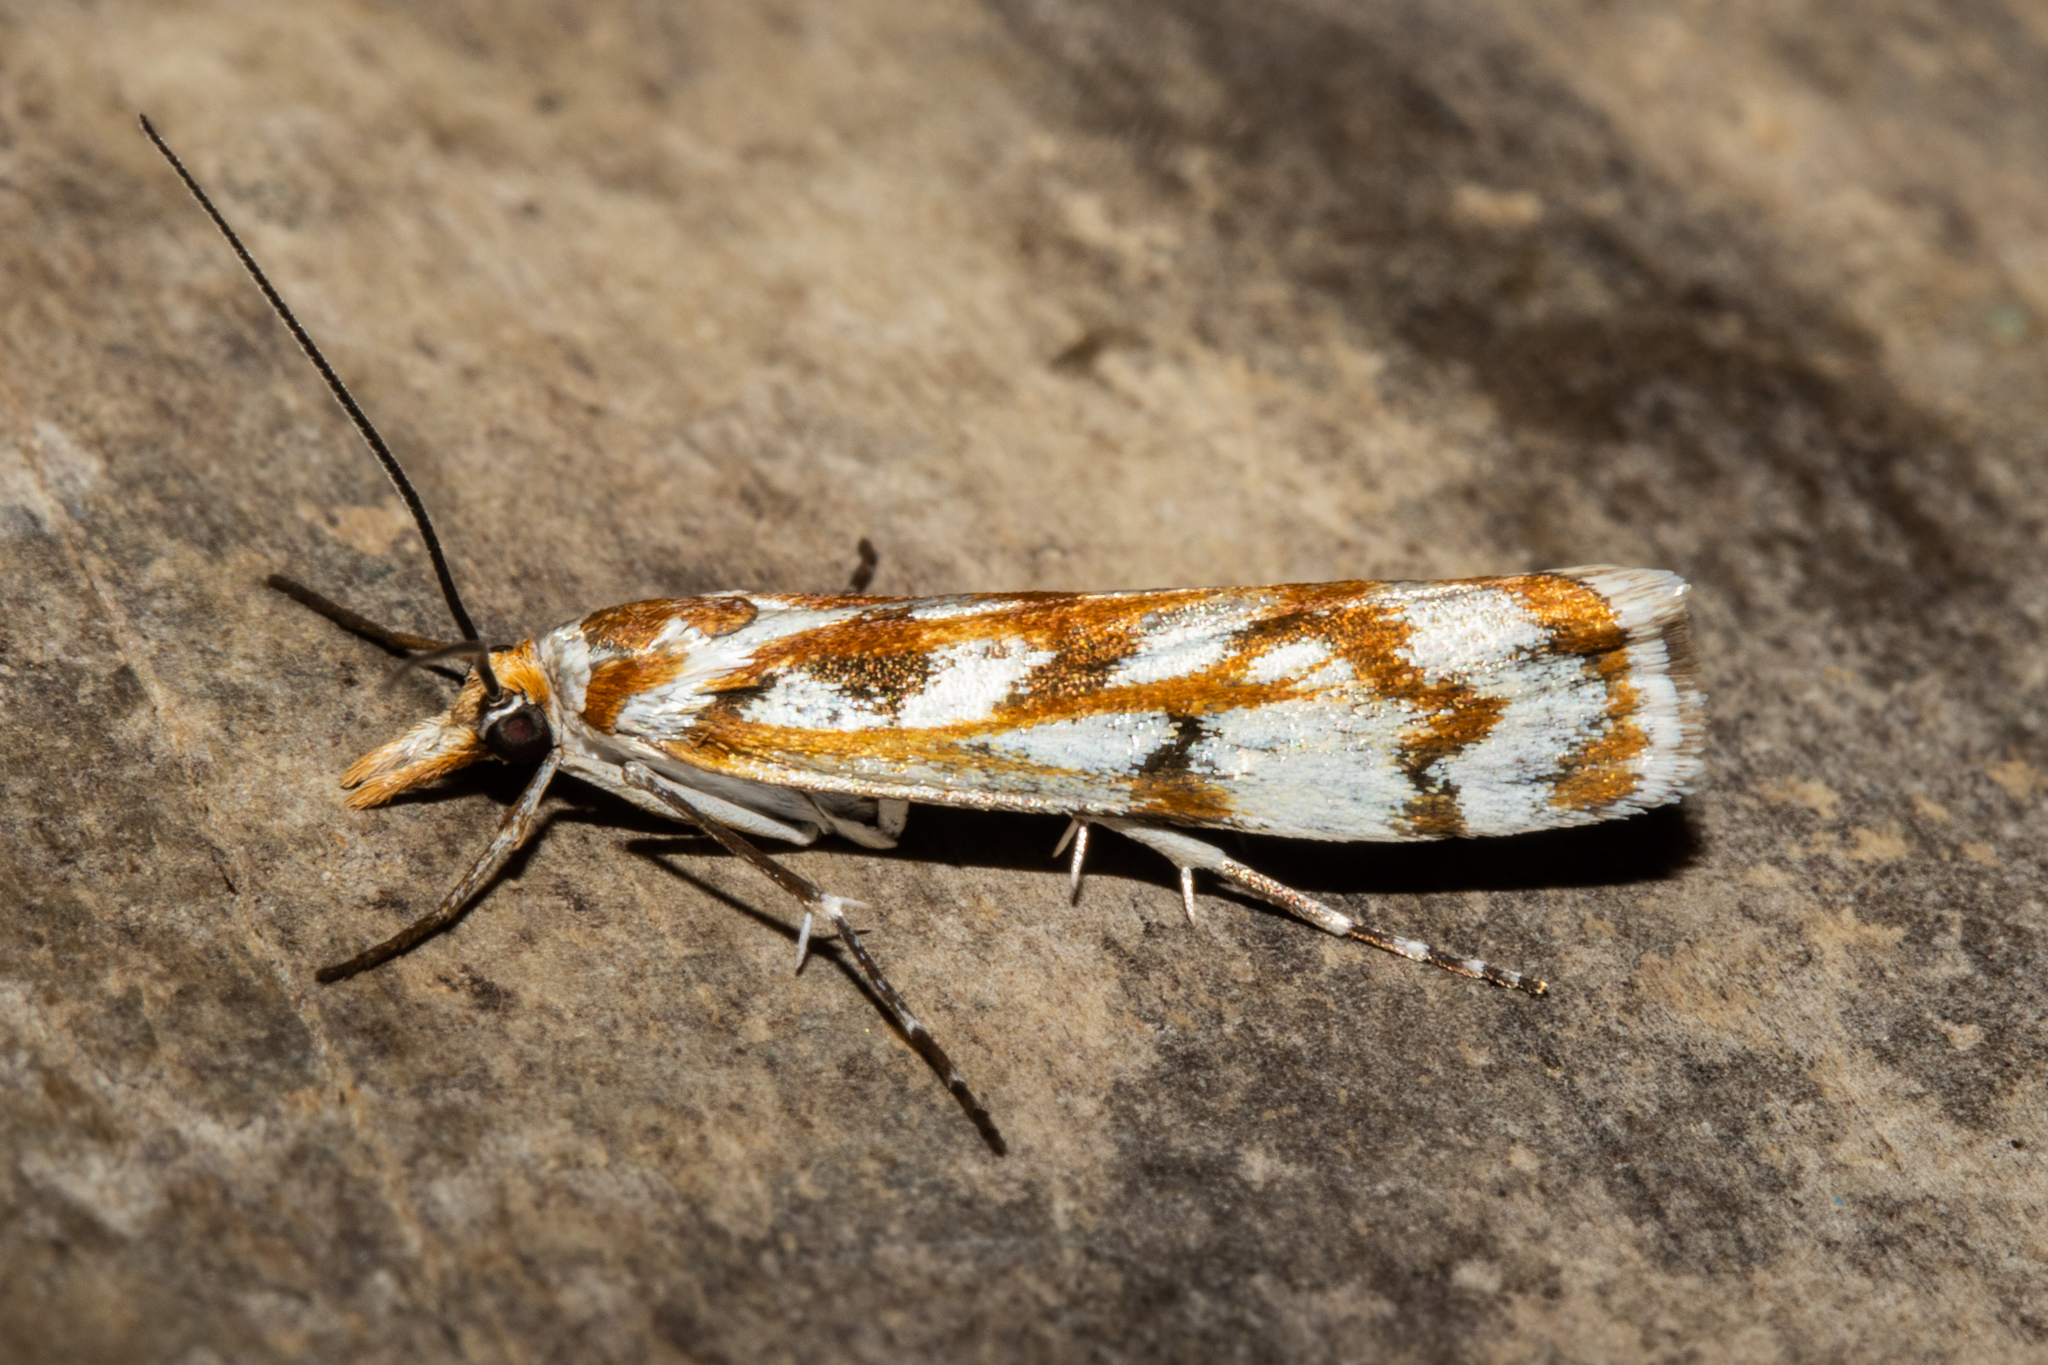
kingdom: Animalia
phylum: Arthropoda
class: Insecta
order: Lepidoptera
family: Crambidae
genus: Orocrambus
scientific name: Orocrambus xanthogrammus
